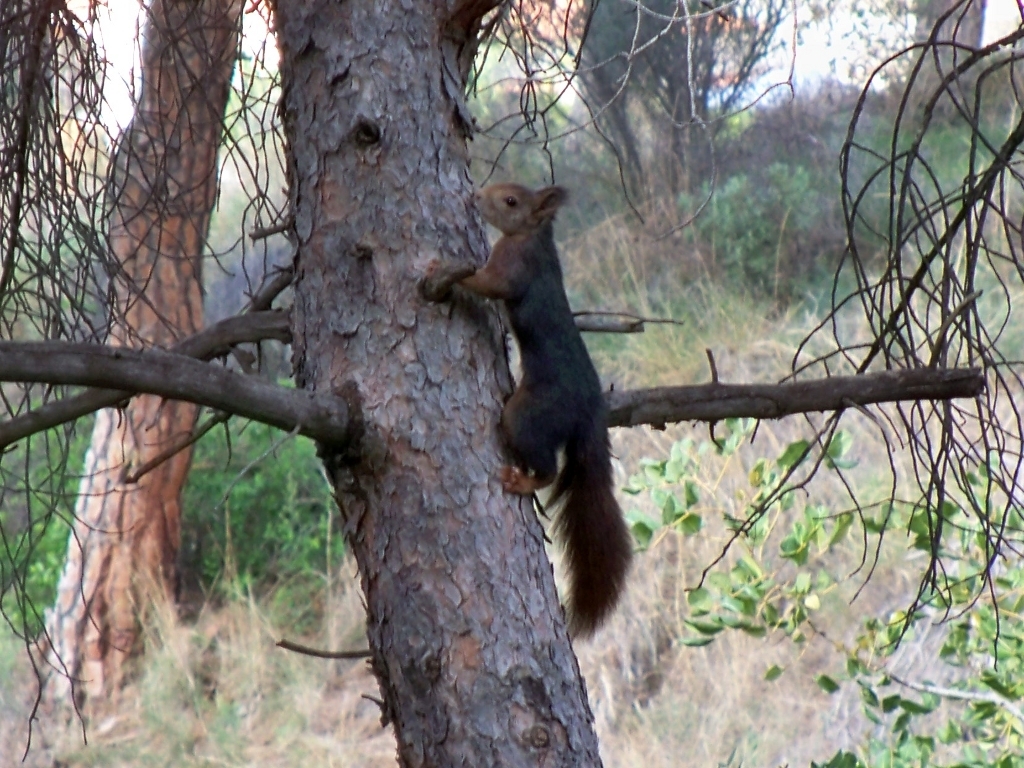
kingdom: Animalia
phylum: Chordata
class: Mammalia
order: Rodentia
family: Sciuridae
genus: Sciurus
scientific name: Sciurus vulgaris
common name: Eurasian red squirrel
